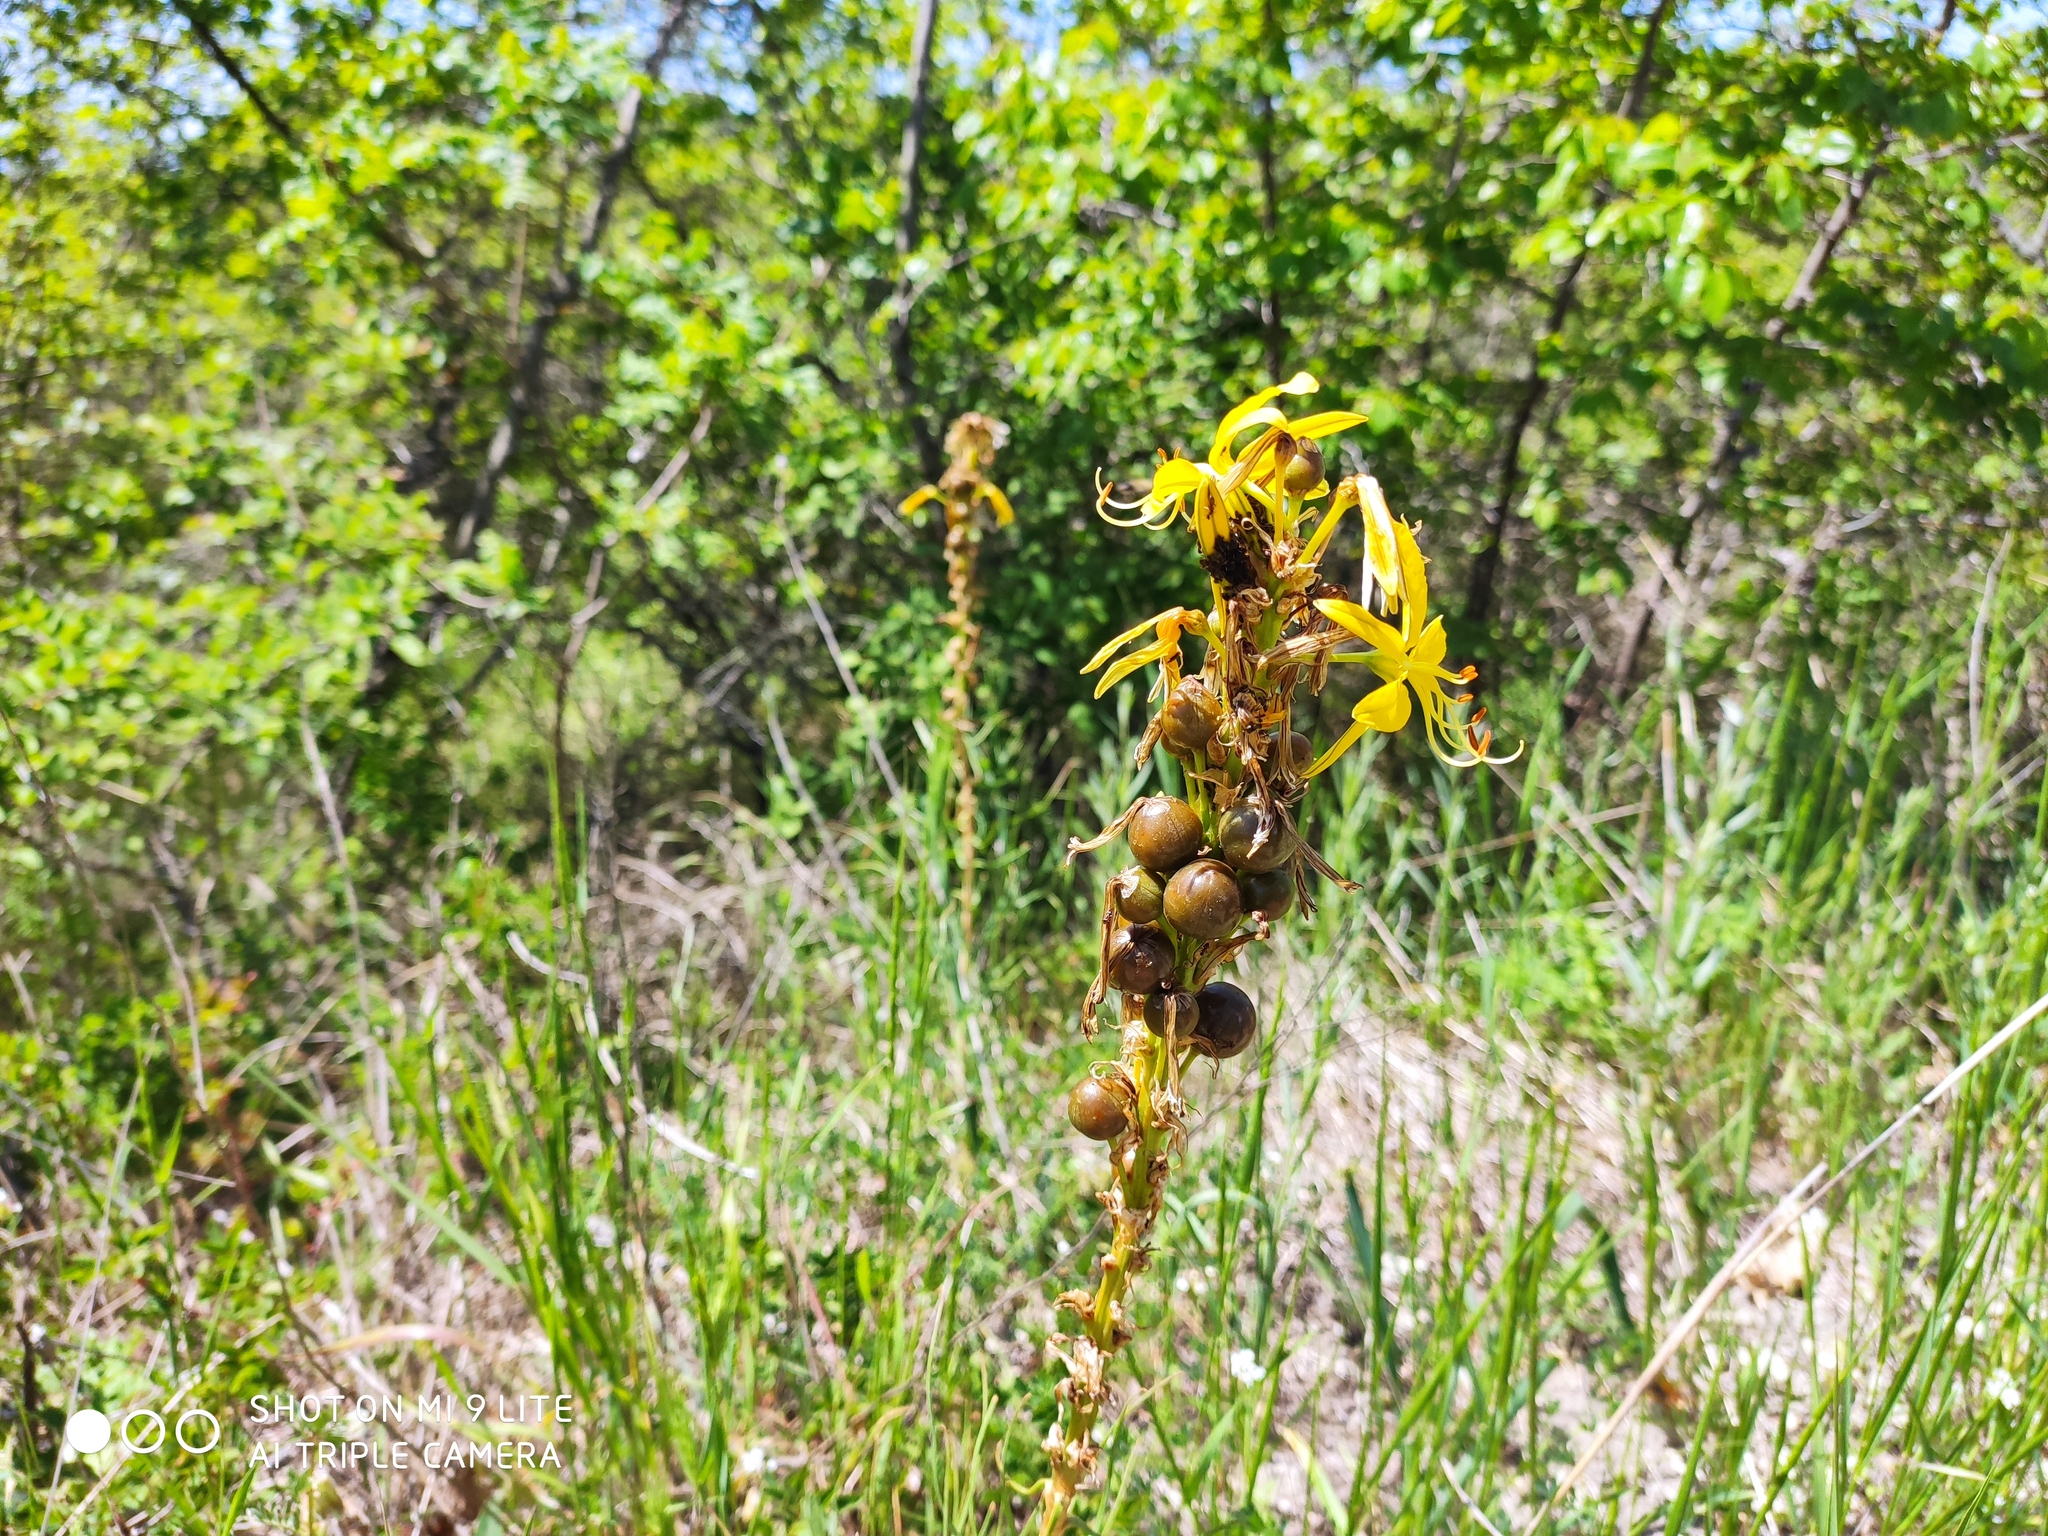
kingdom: Plantae
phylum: Tracheophyta
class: Liliopsida
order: Asparagales
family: Asphodelaceae
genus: Asphodeline
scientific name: Asphodeline lutea
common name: Yellow asphodel
